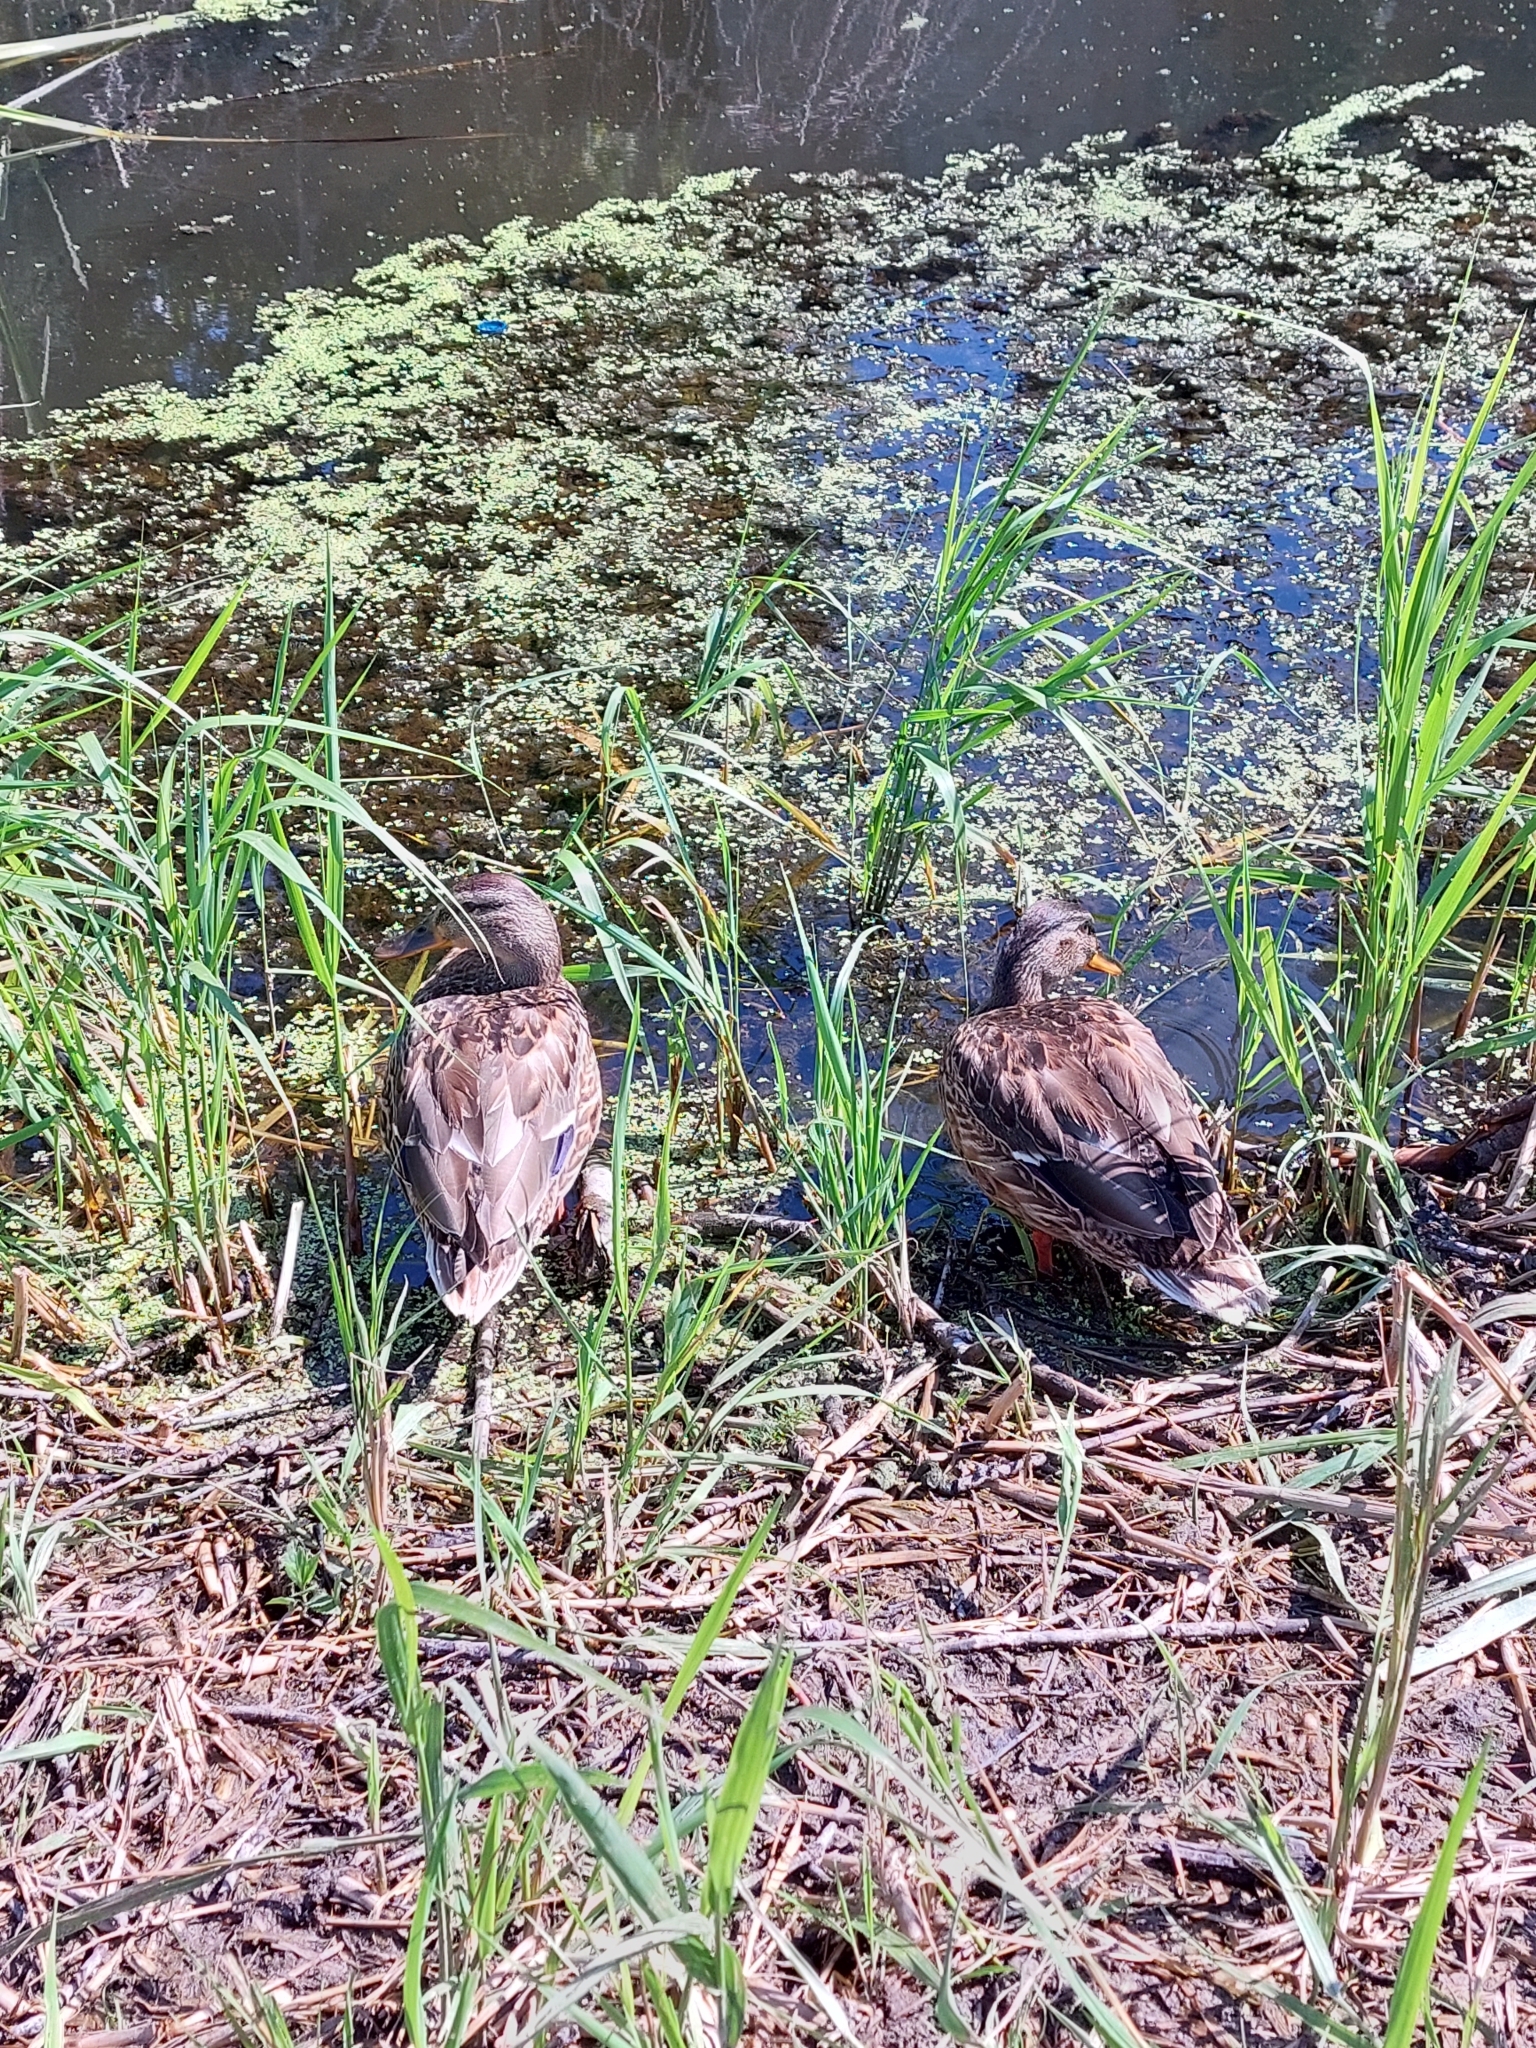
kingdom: Animalia
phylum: Chordata
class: Aves
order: Anseriformes
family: Anatidae
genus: Anas
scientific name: Anas platyrhynchos
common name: Mallard
